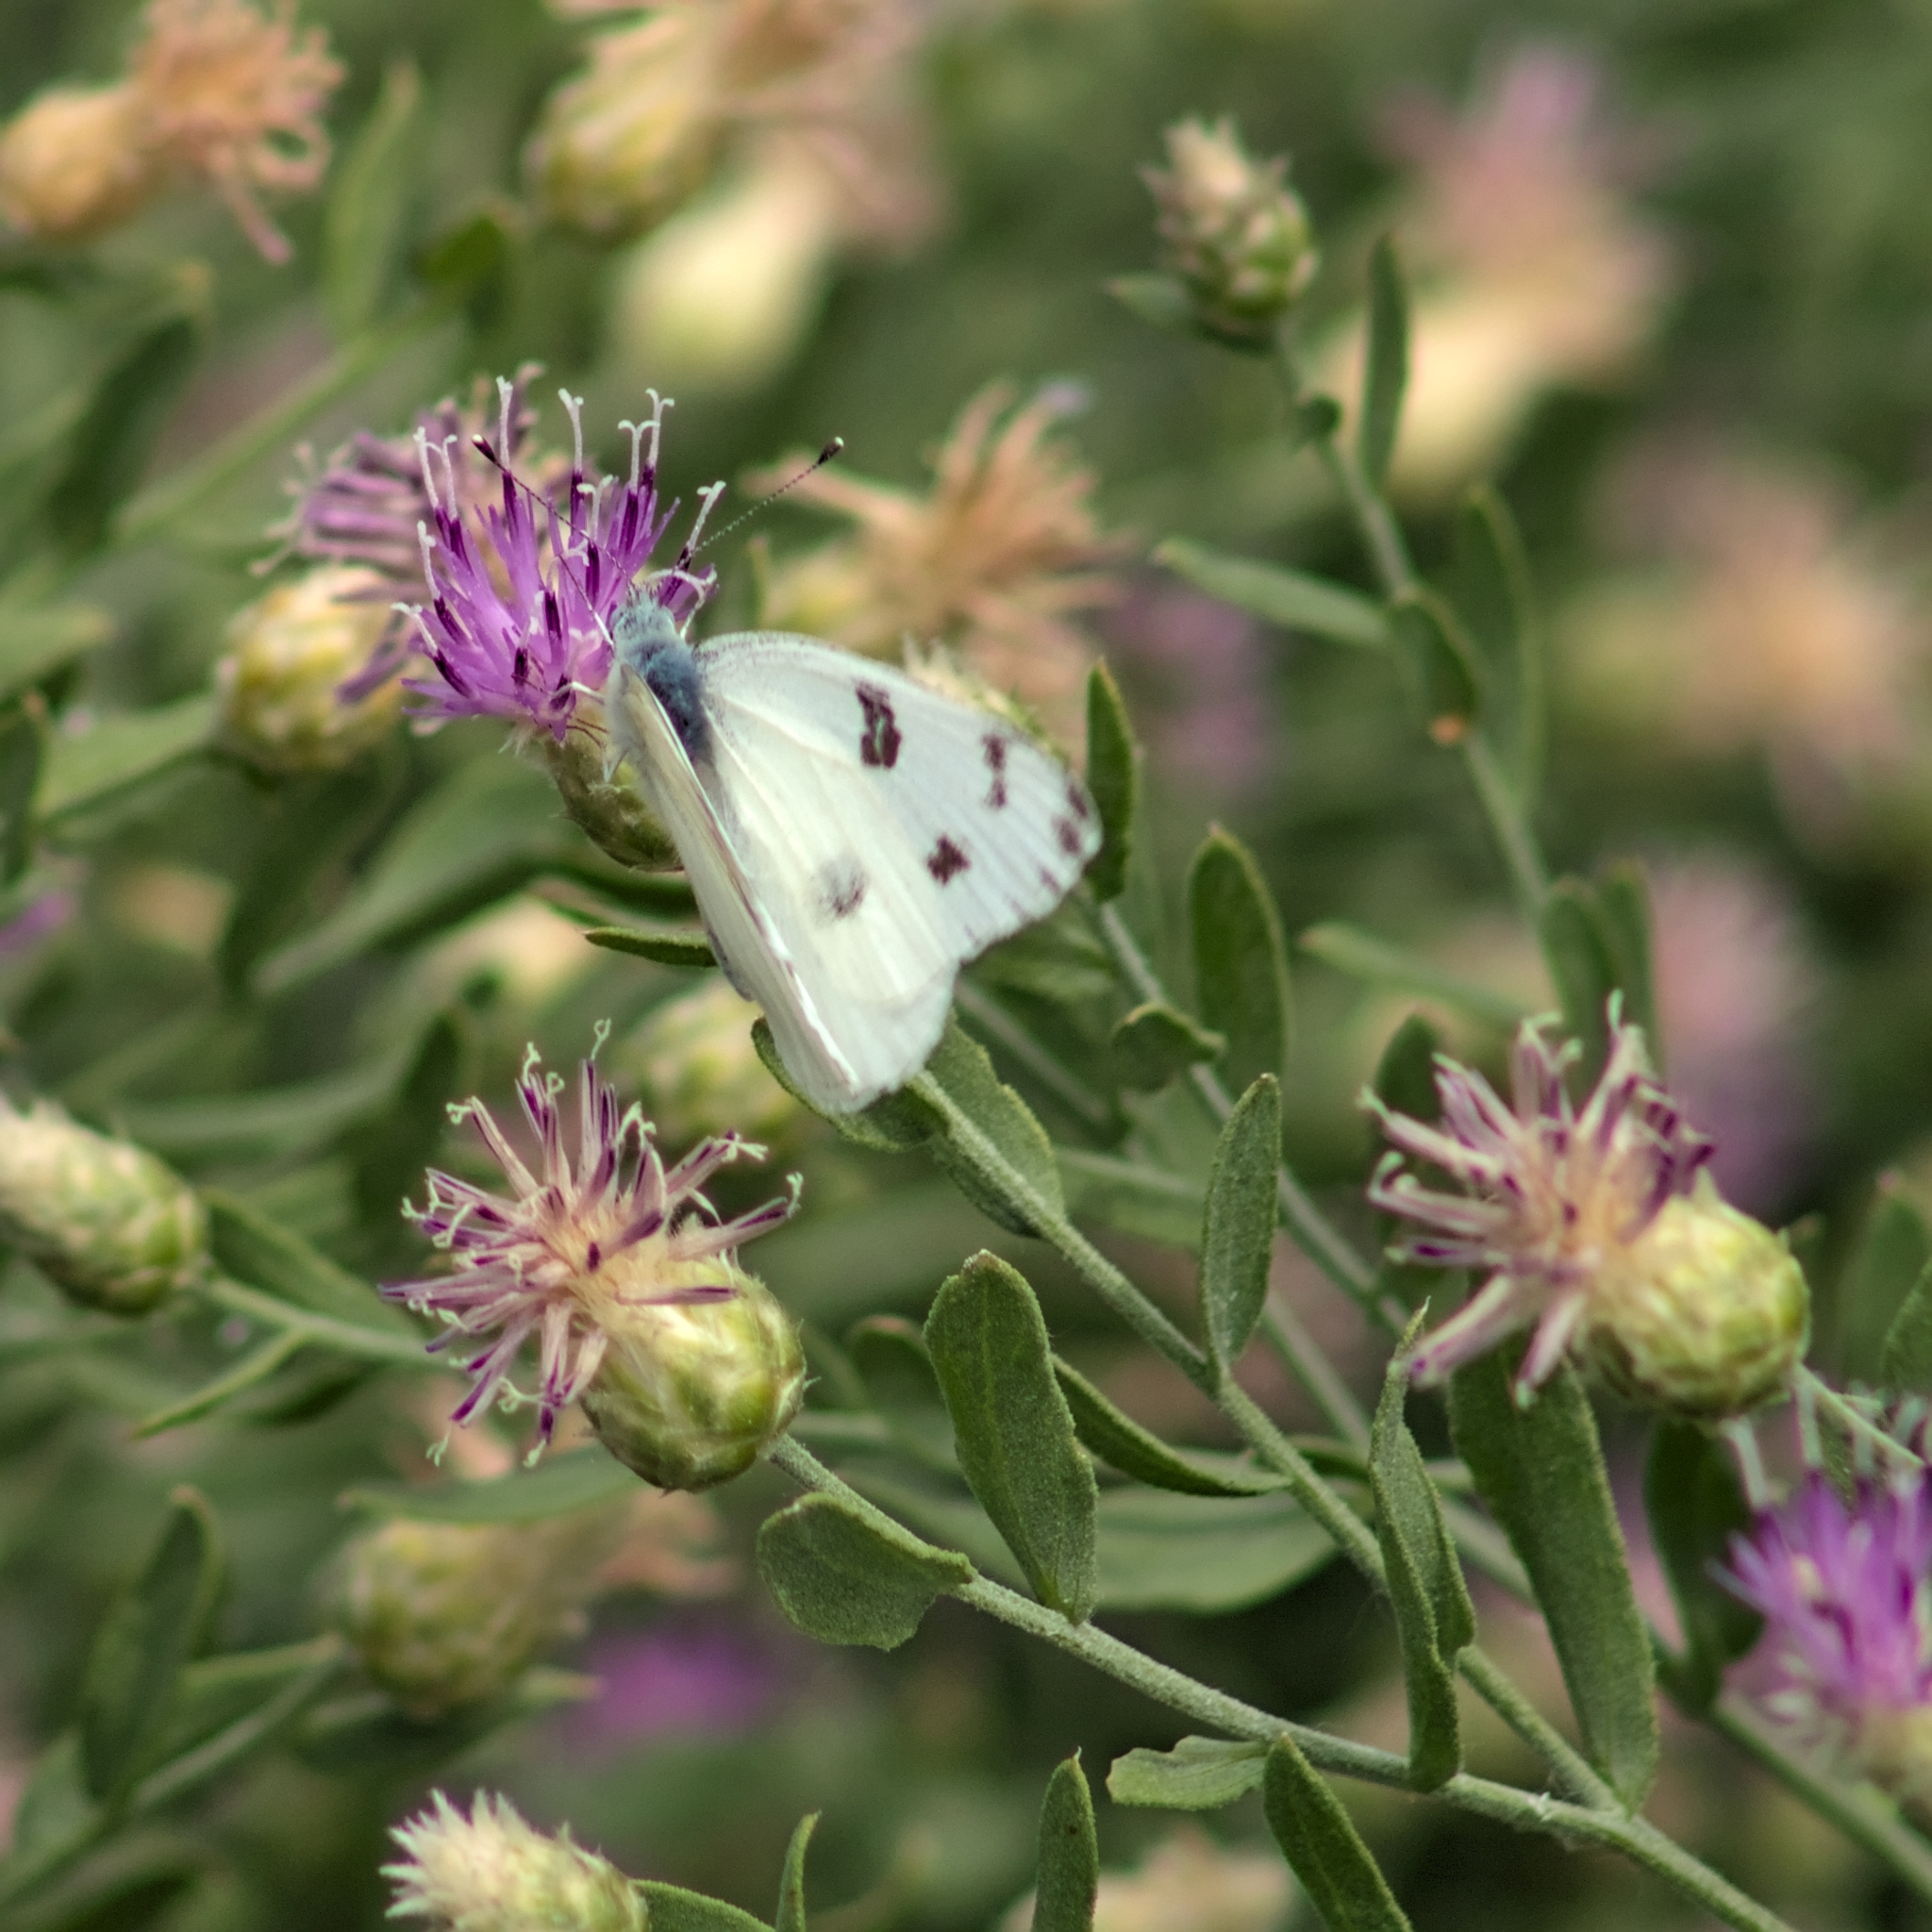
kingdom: Animalia
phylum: Arthropoda
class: Insecta
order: Lepidoptera
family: Pieridae
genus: Pontia
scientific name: Pontia protodice
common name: Checkered white
